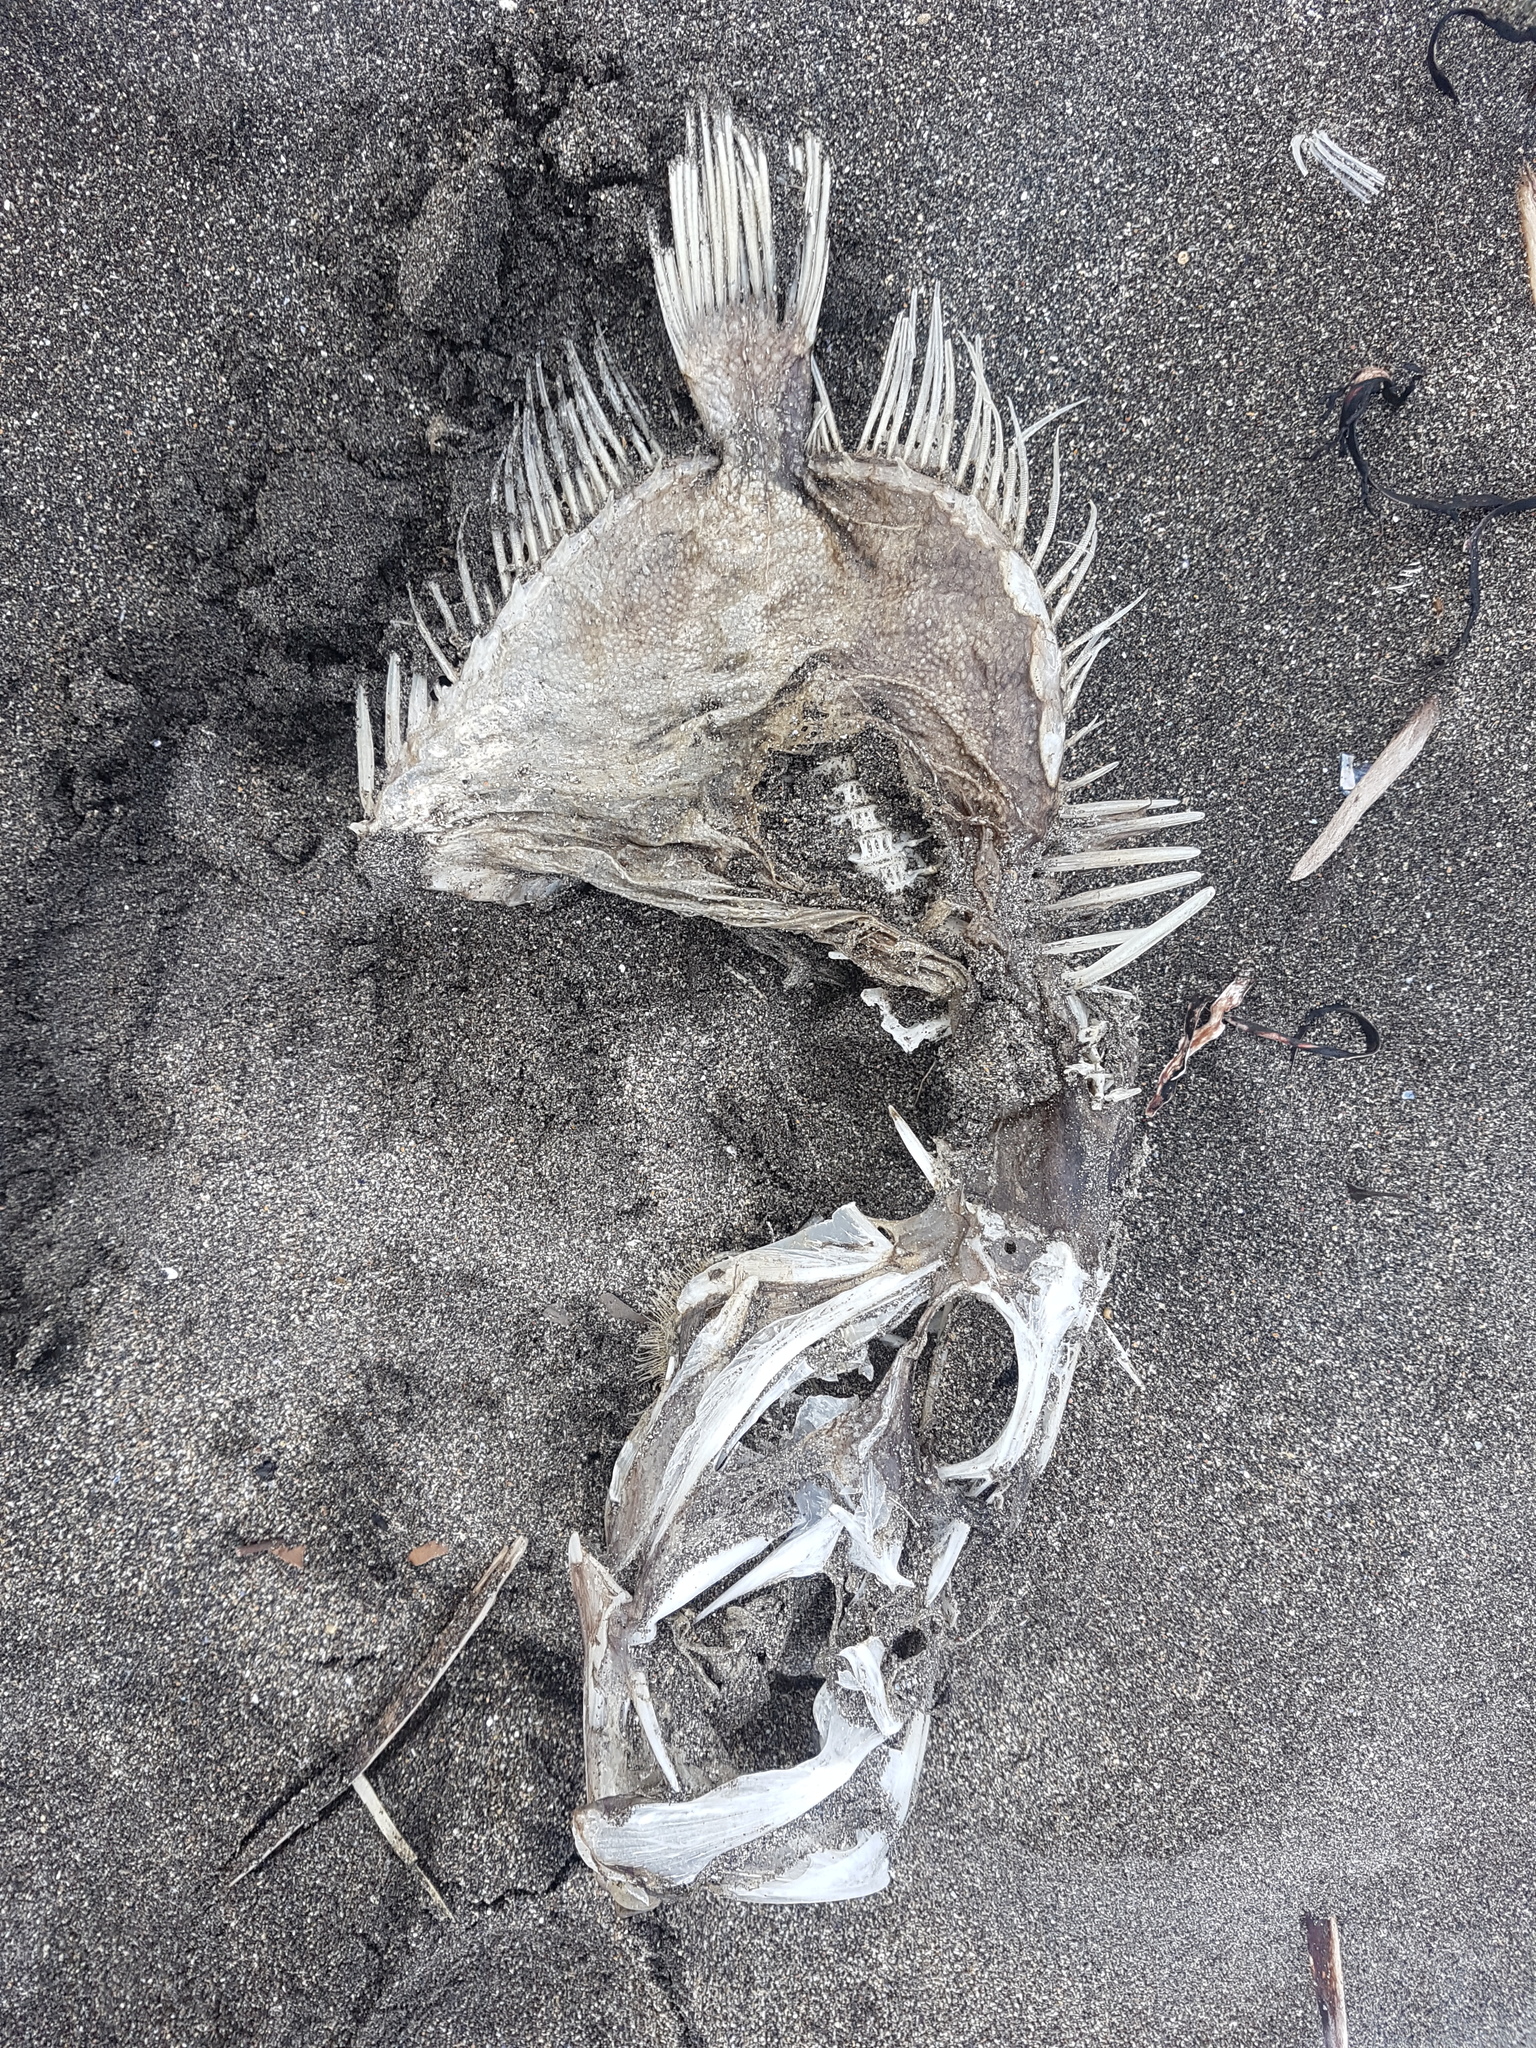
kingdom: Animalia
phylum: Chordata
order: Zeiformes
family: Zeidae
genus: Zeus
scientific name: Zeus faber
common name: John dory
